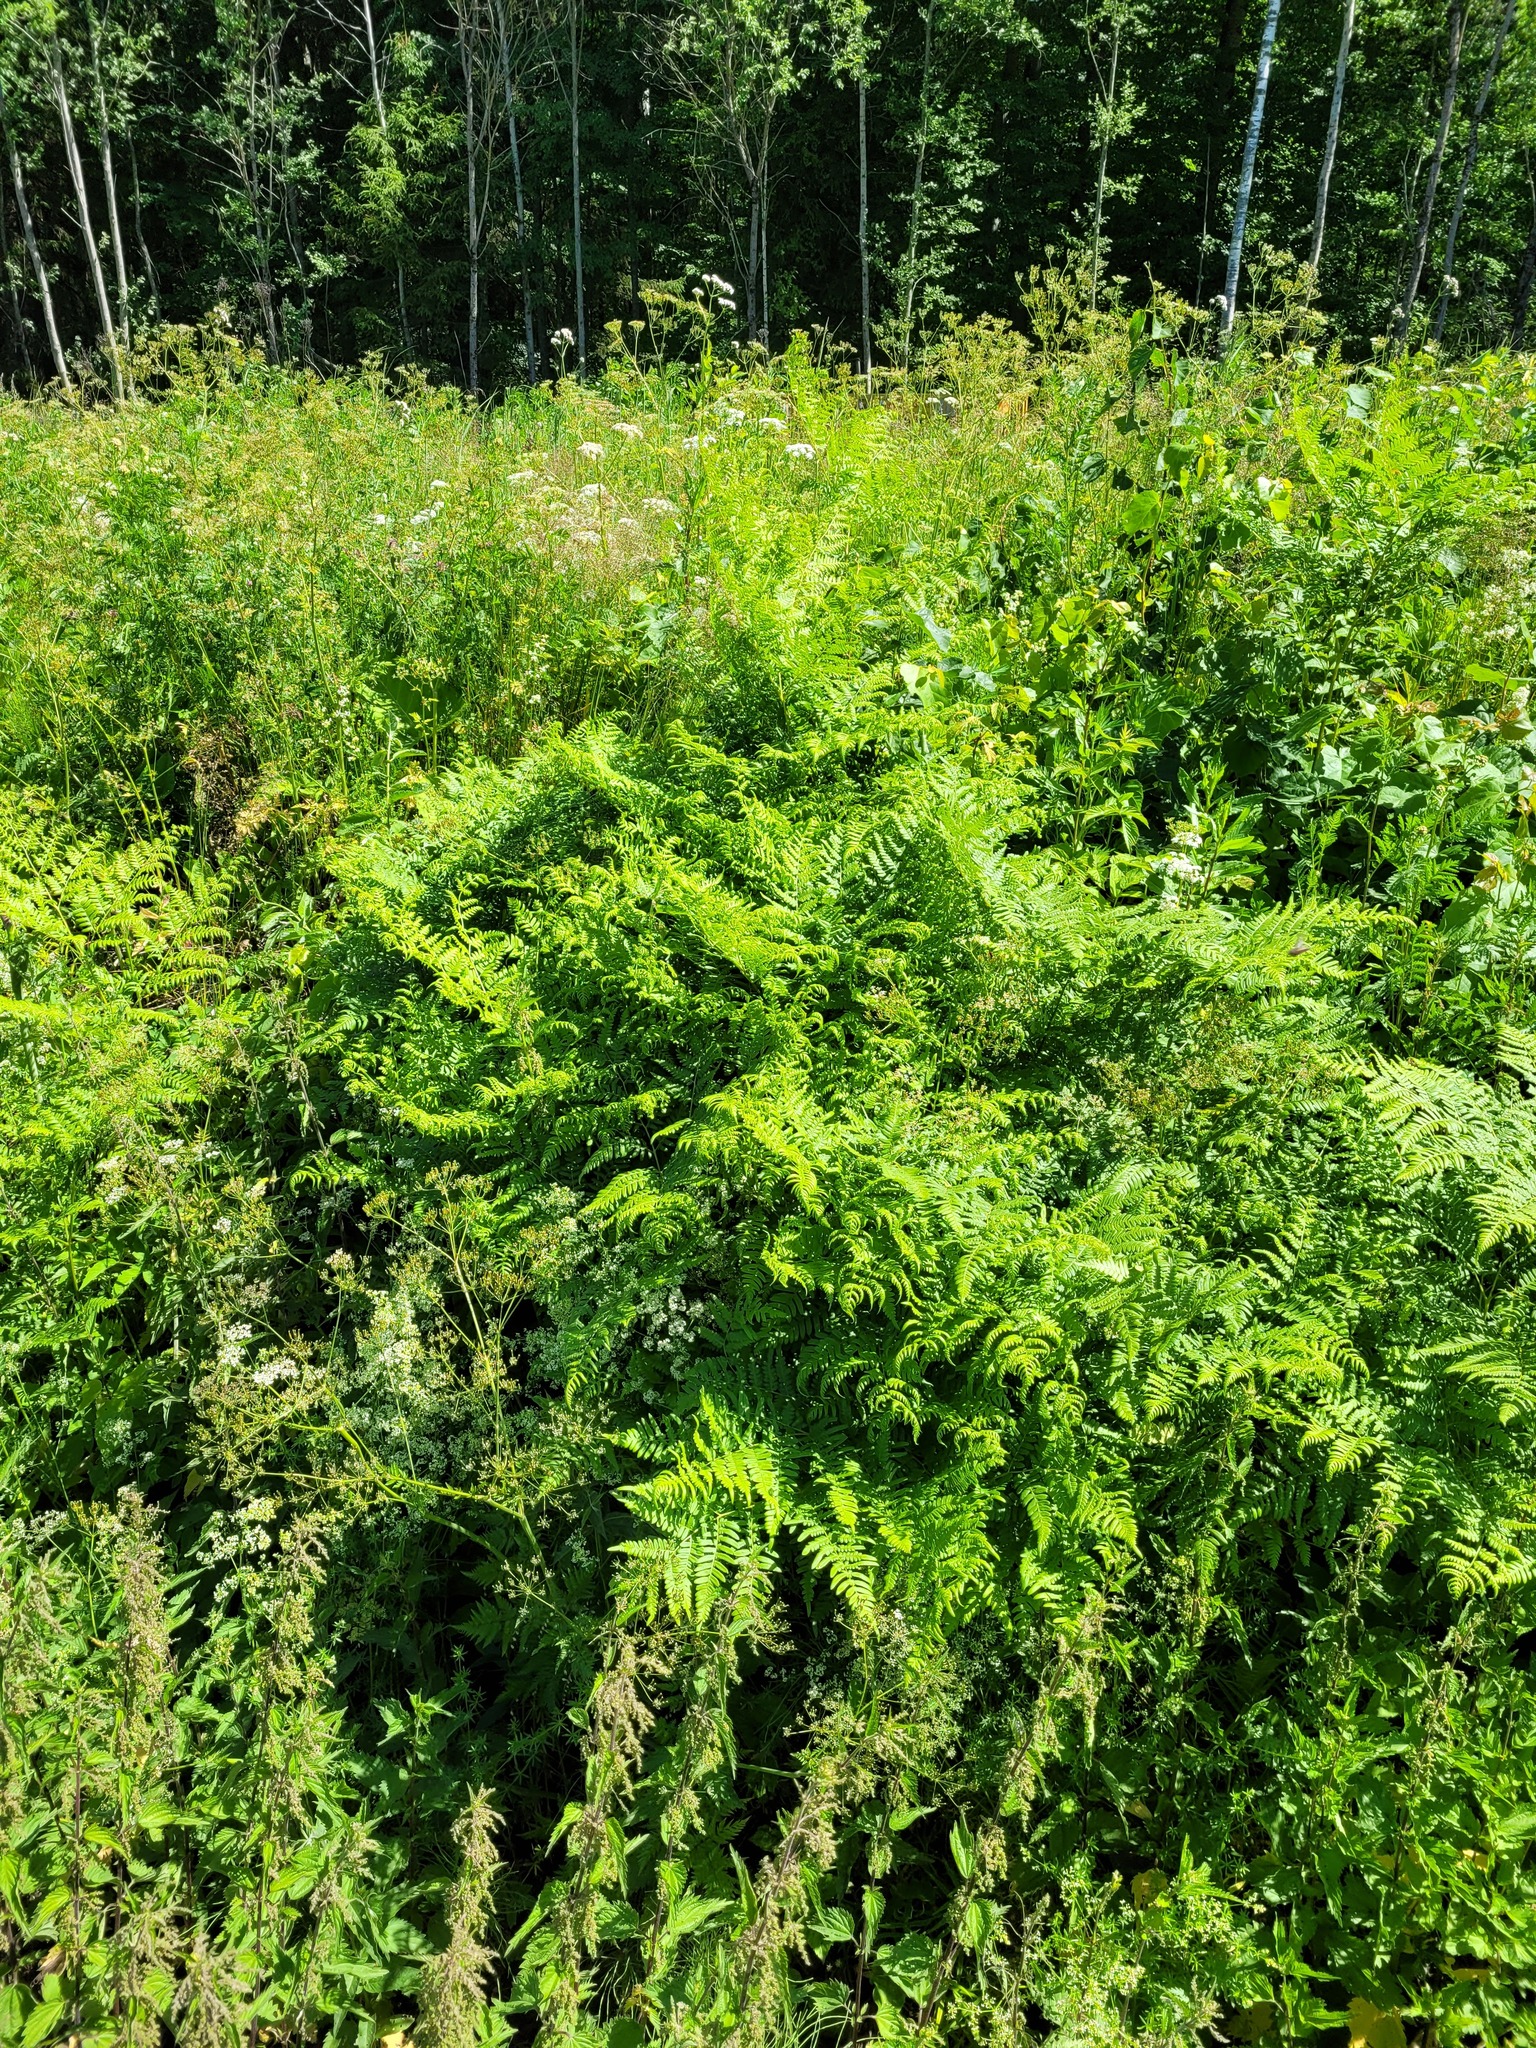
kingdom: Plantae
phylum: Tracheophyta
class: Polypodiopsida
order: Polypodiales
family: Dennstaedtiaceae
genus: Pteridium
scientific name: Pteridium aquilinum
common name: Bracken
